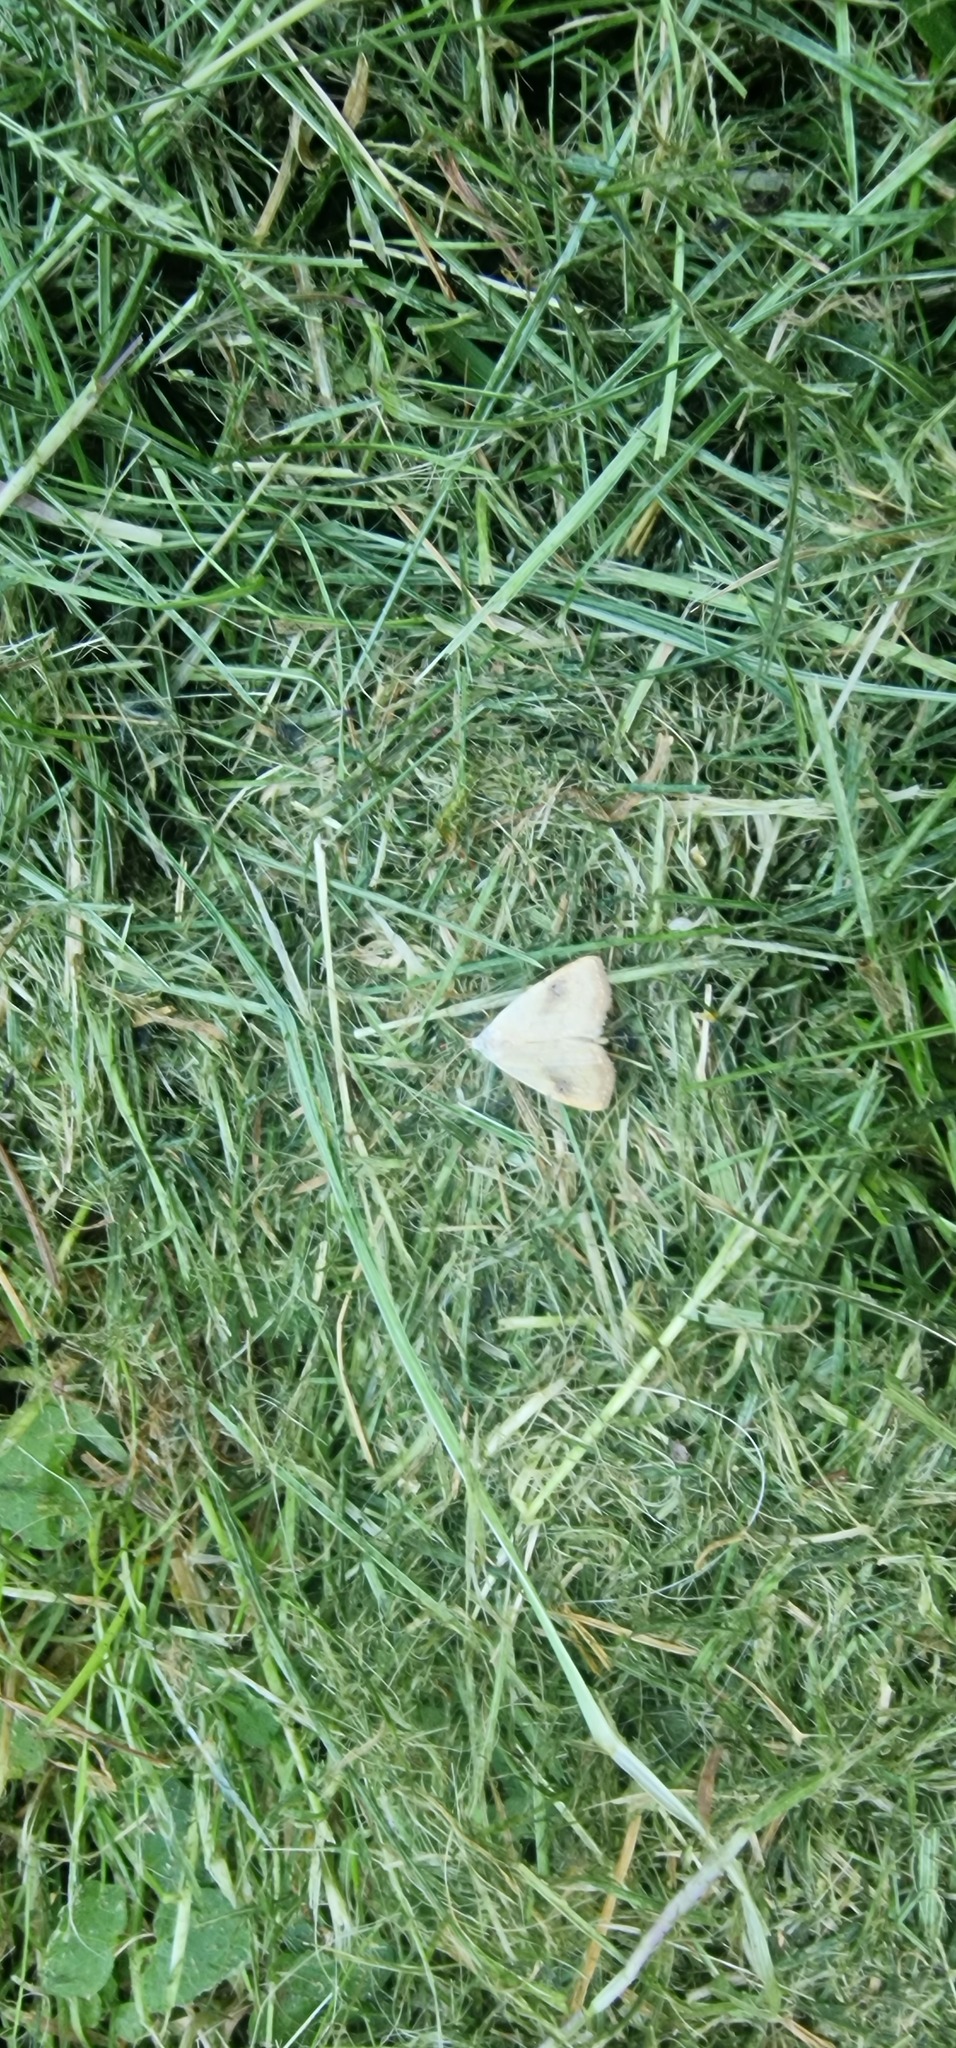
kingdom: Animalia
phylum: Arthropoda
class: Insecta
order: Lepidoptera
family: Erebidae
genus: Rivula
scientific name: Rivula sericealis
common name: Straw dot
